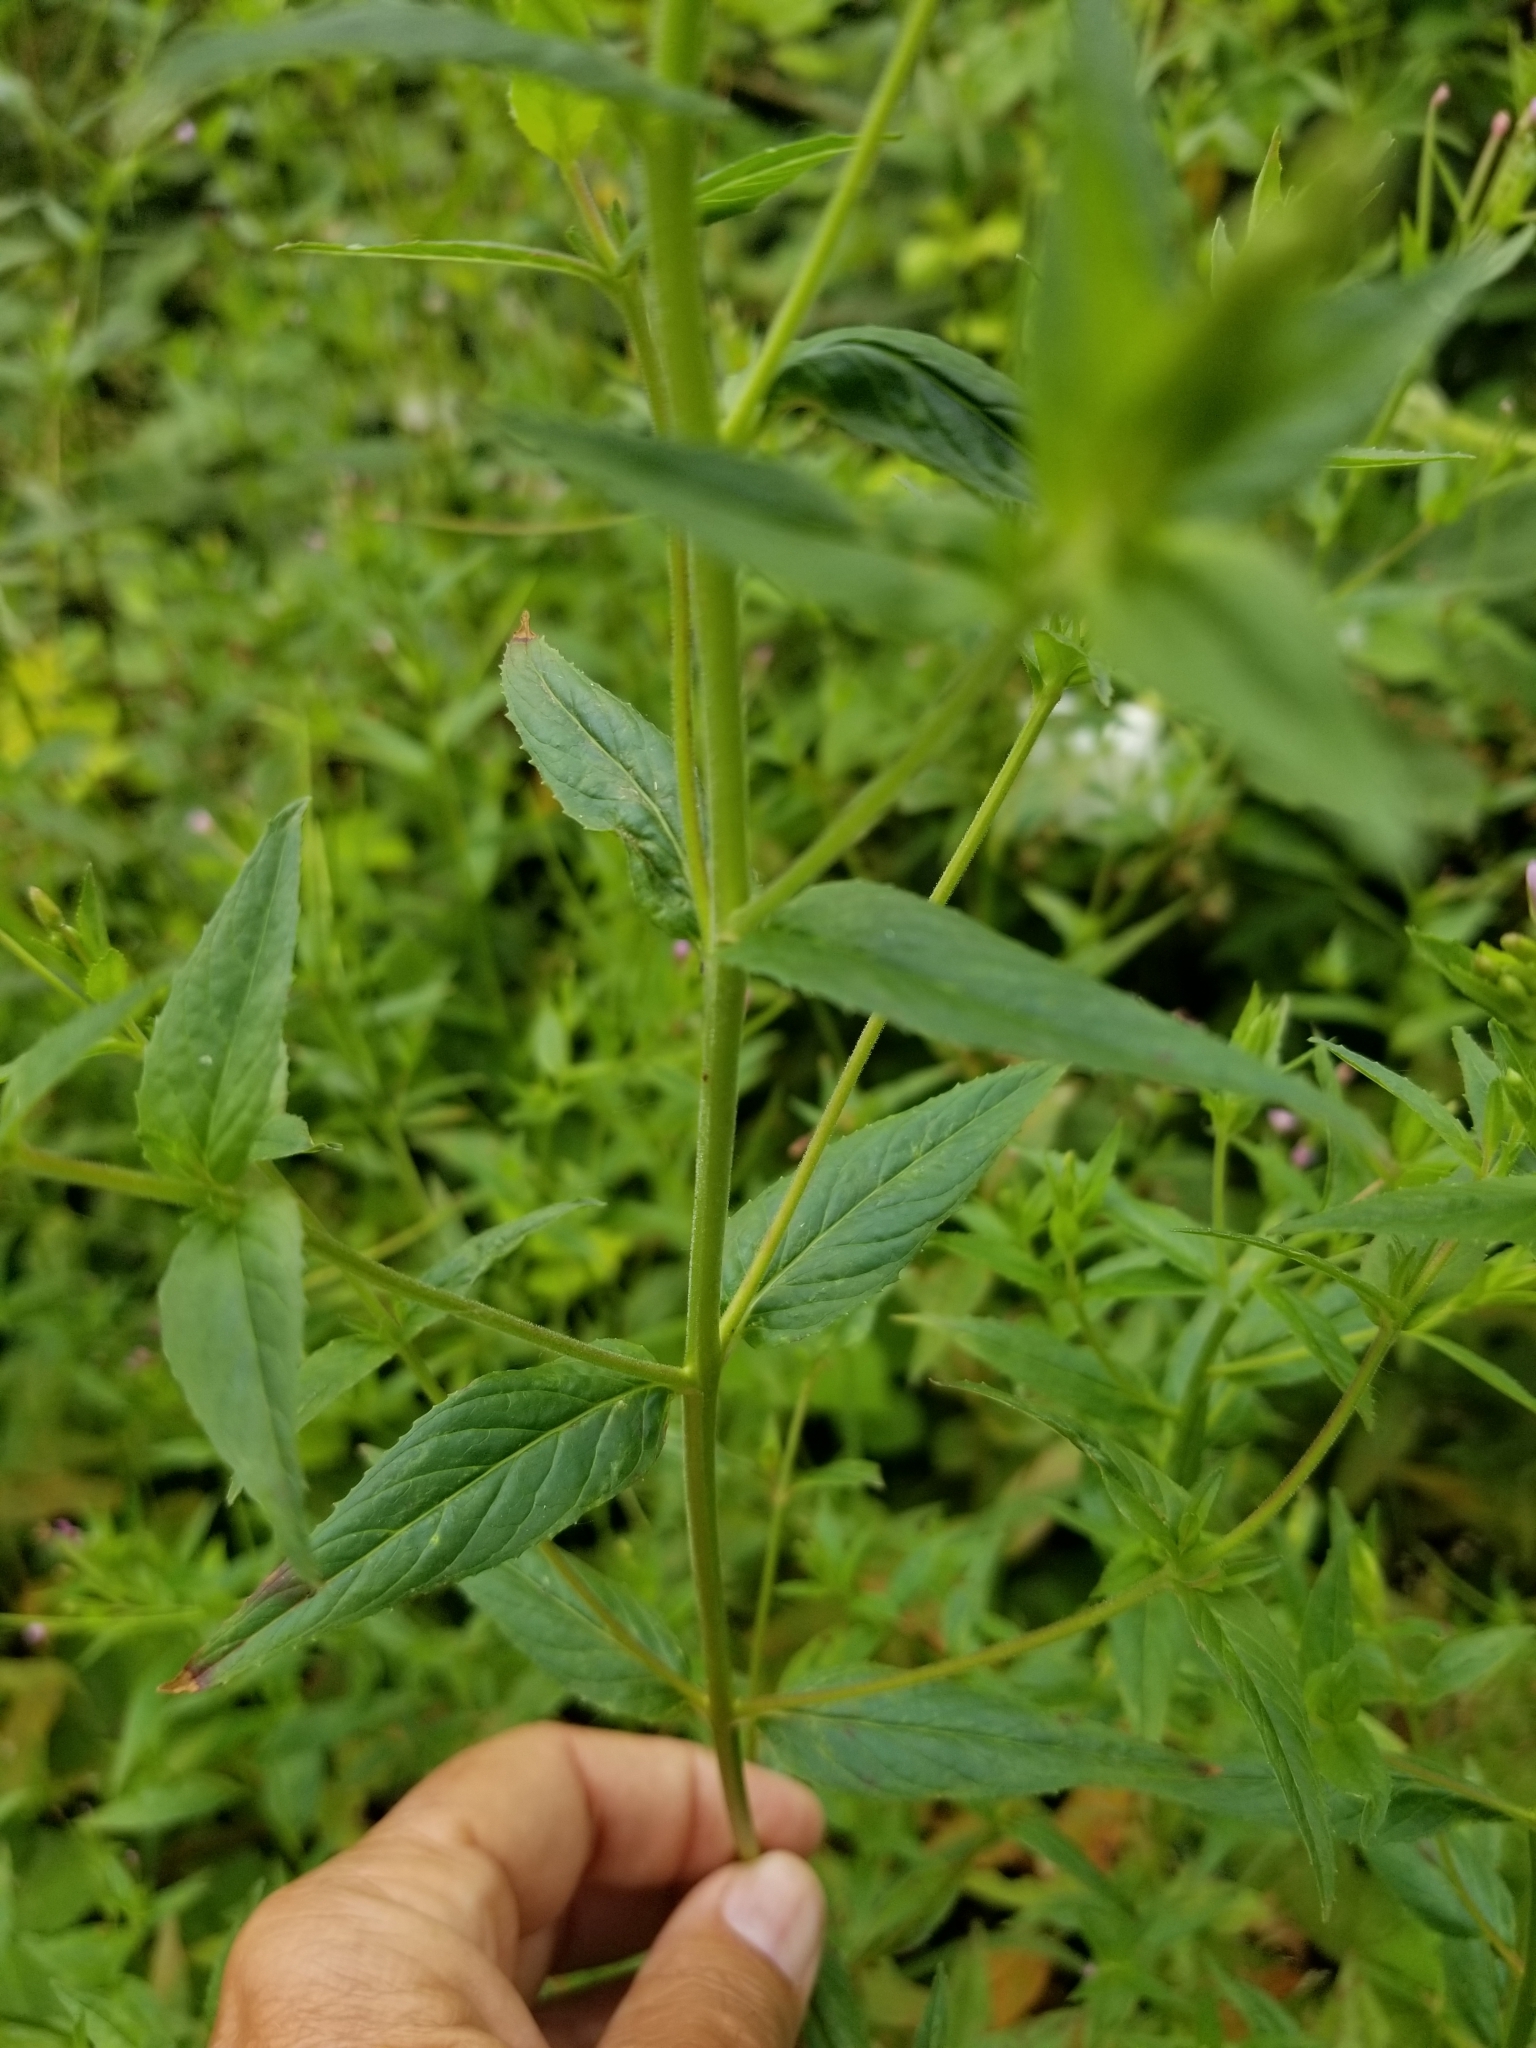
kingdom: Plantae
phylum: Tracheophyta
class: Magnoliopsida
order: Myrtales
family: Onagraceae
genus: Epilobium
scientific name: Epilobium ciliatum
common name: American willowherb
